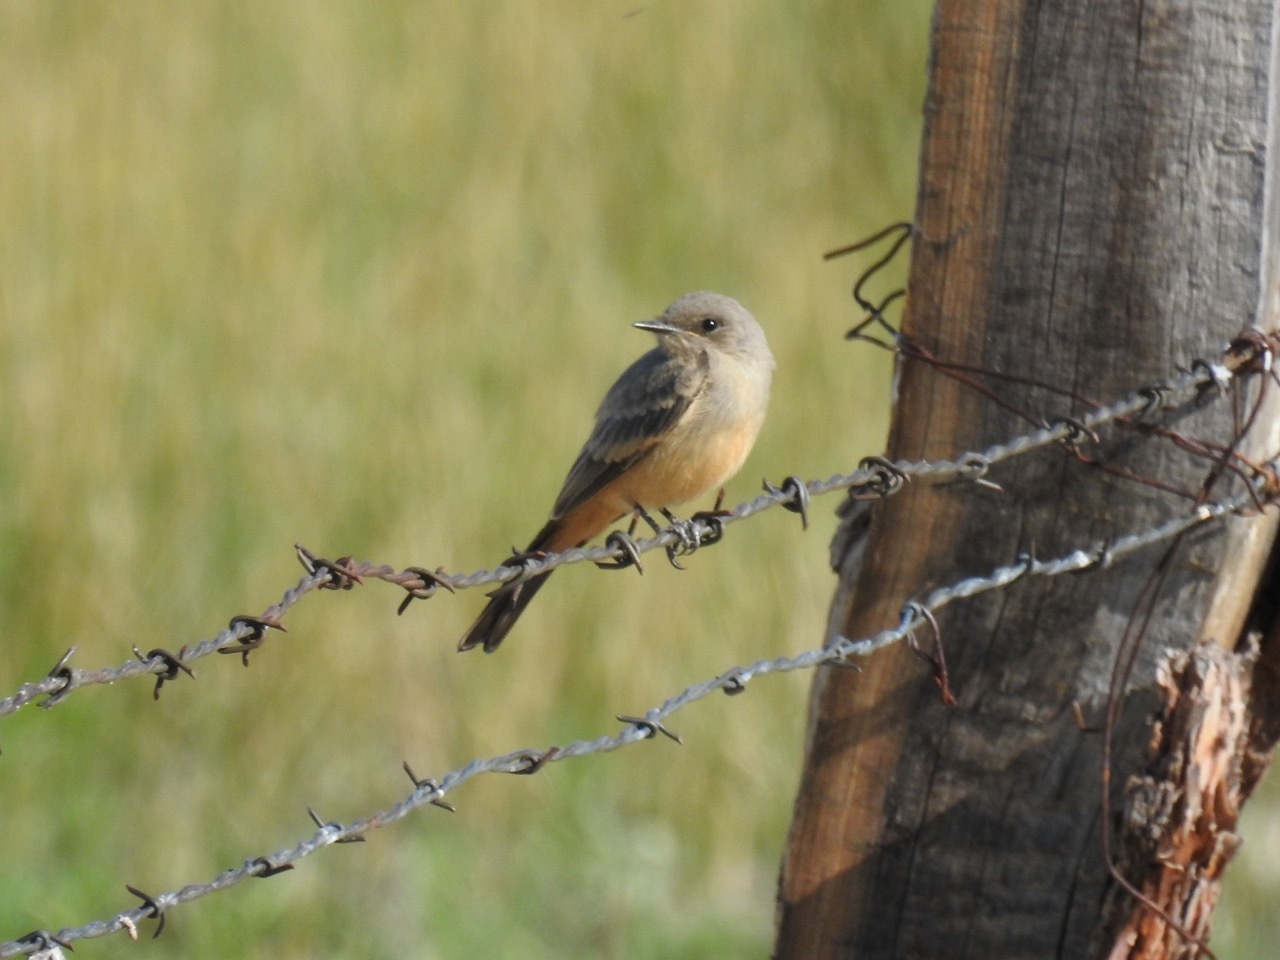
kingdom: Animalia
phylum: Chordata
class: Aves
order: Passeriformes
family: Tyrannidae
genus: Sayornis
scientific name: Sayornis saya
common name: Say's phoebe
